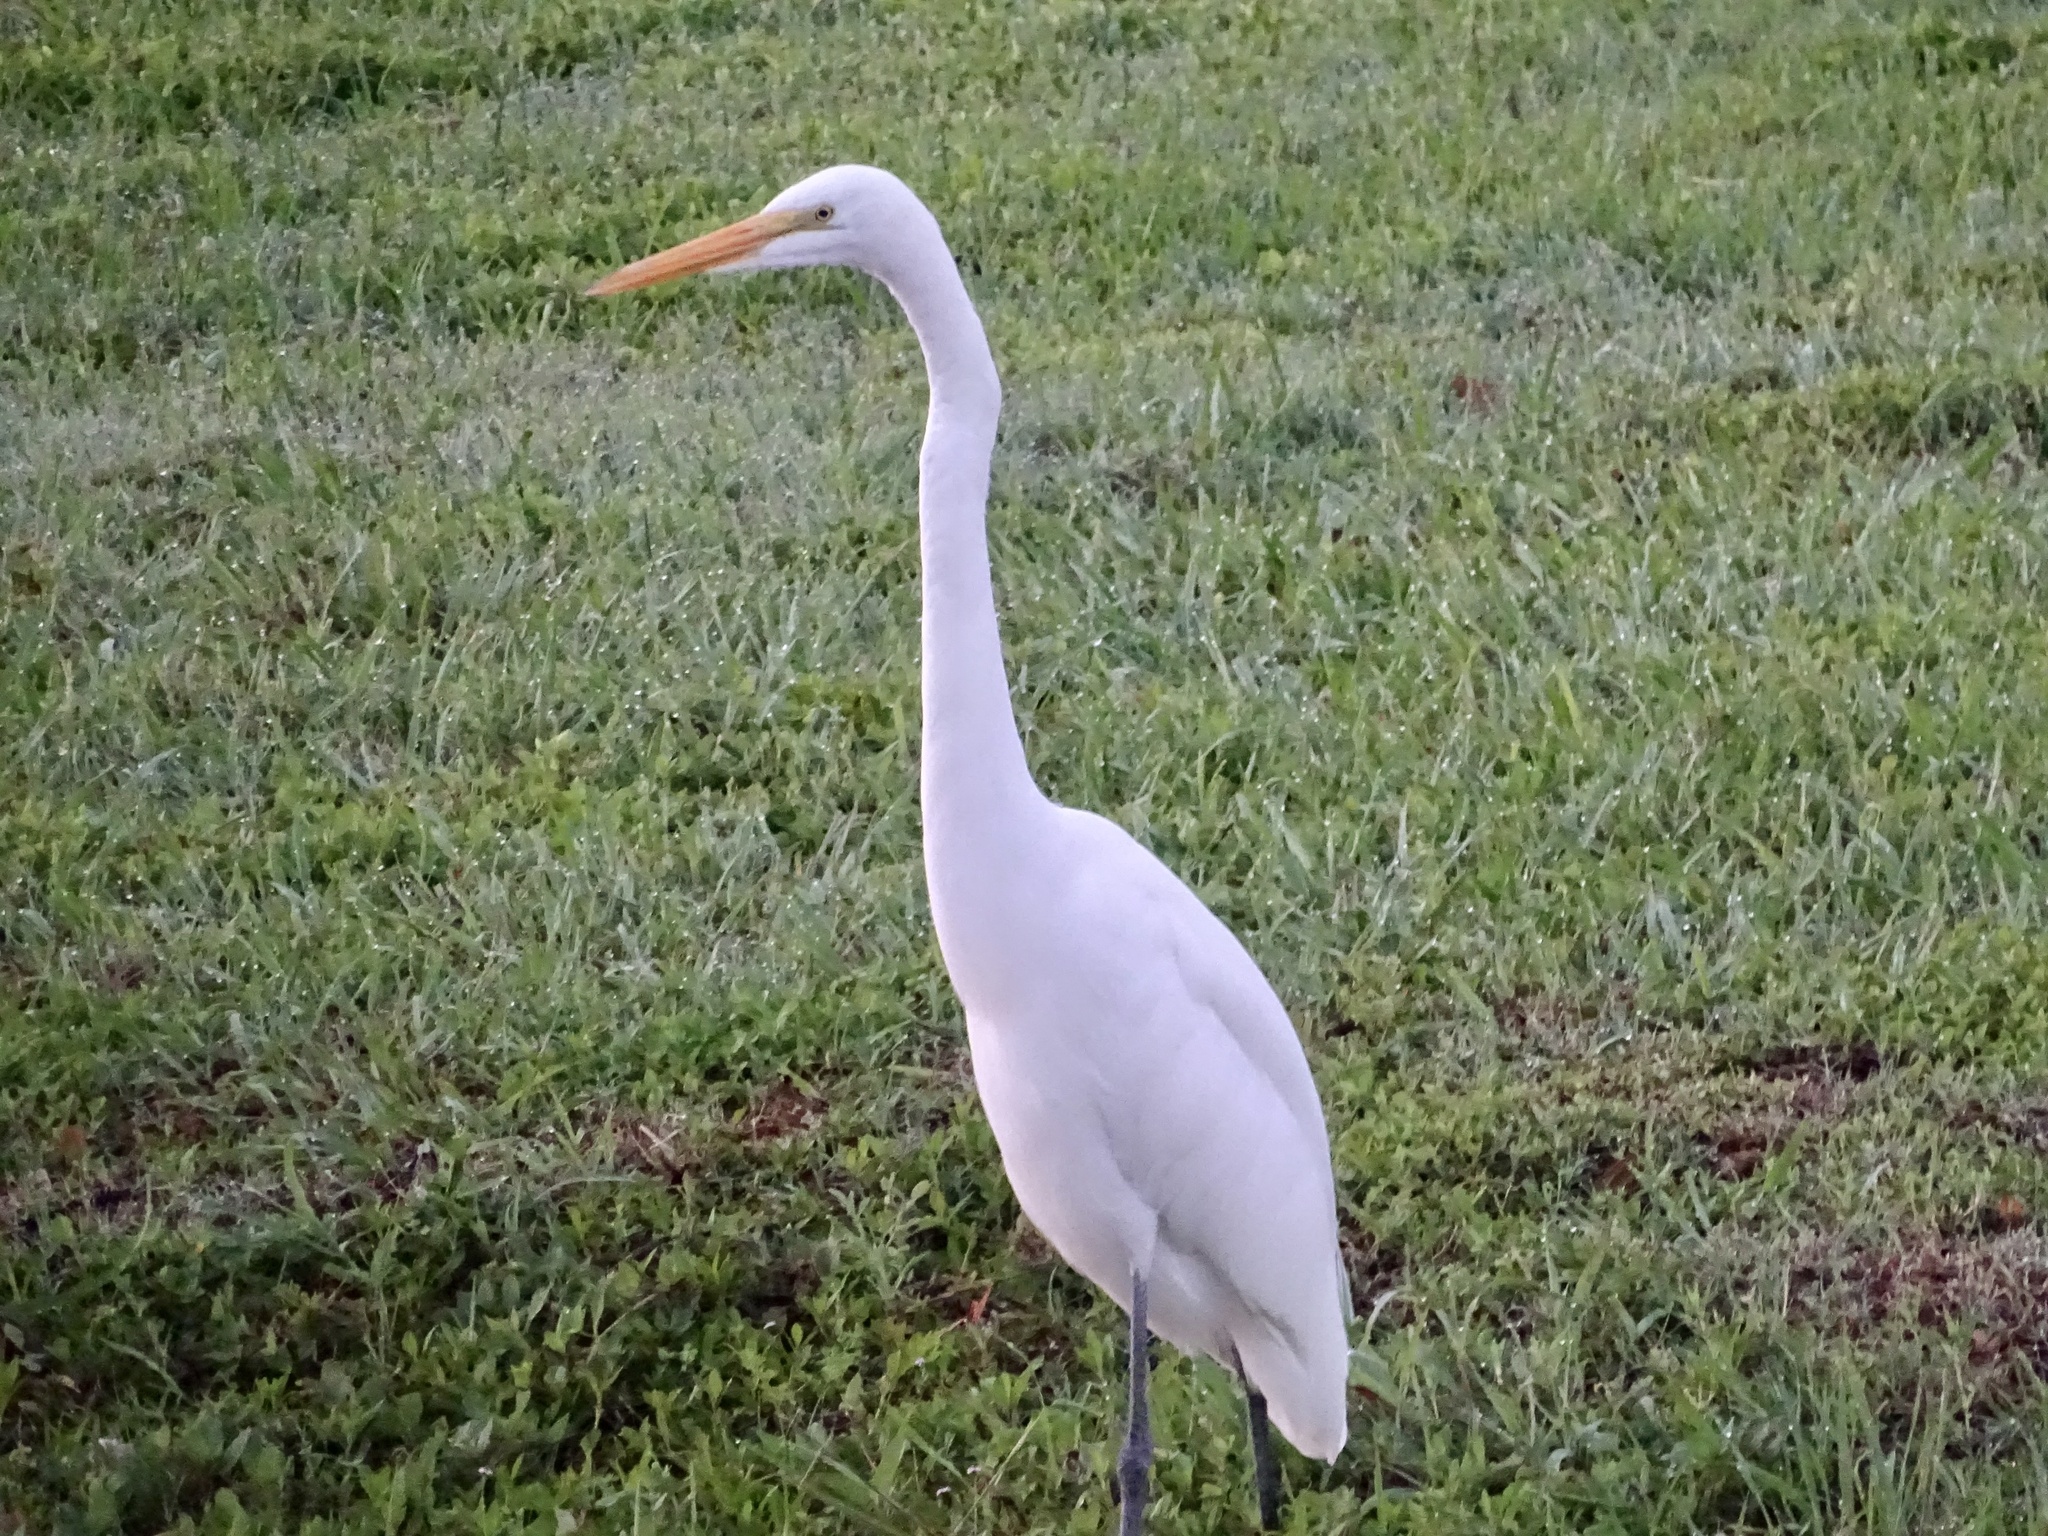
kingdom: Animalia
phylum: Chordata
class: Aves
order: Pelecaniformes
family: Ardeidae
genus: Ardea
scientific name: Ardea alba
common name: Great egret
